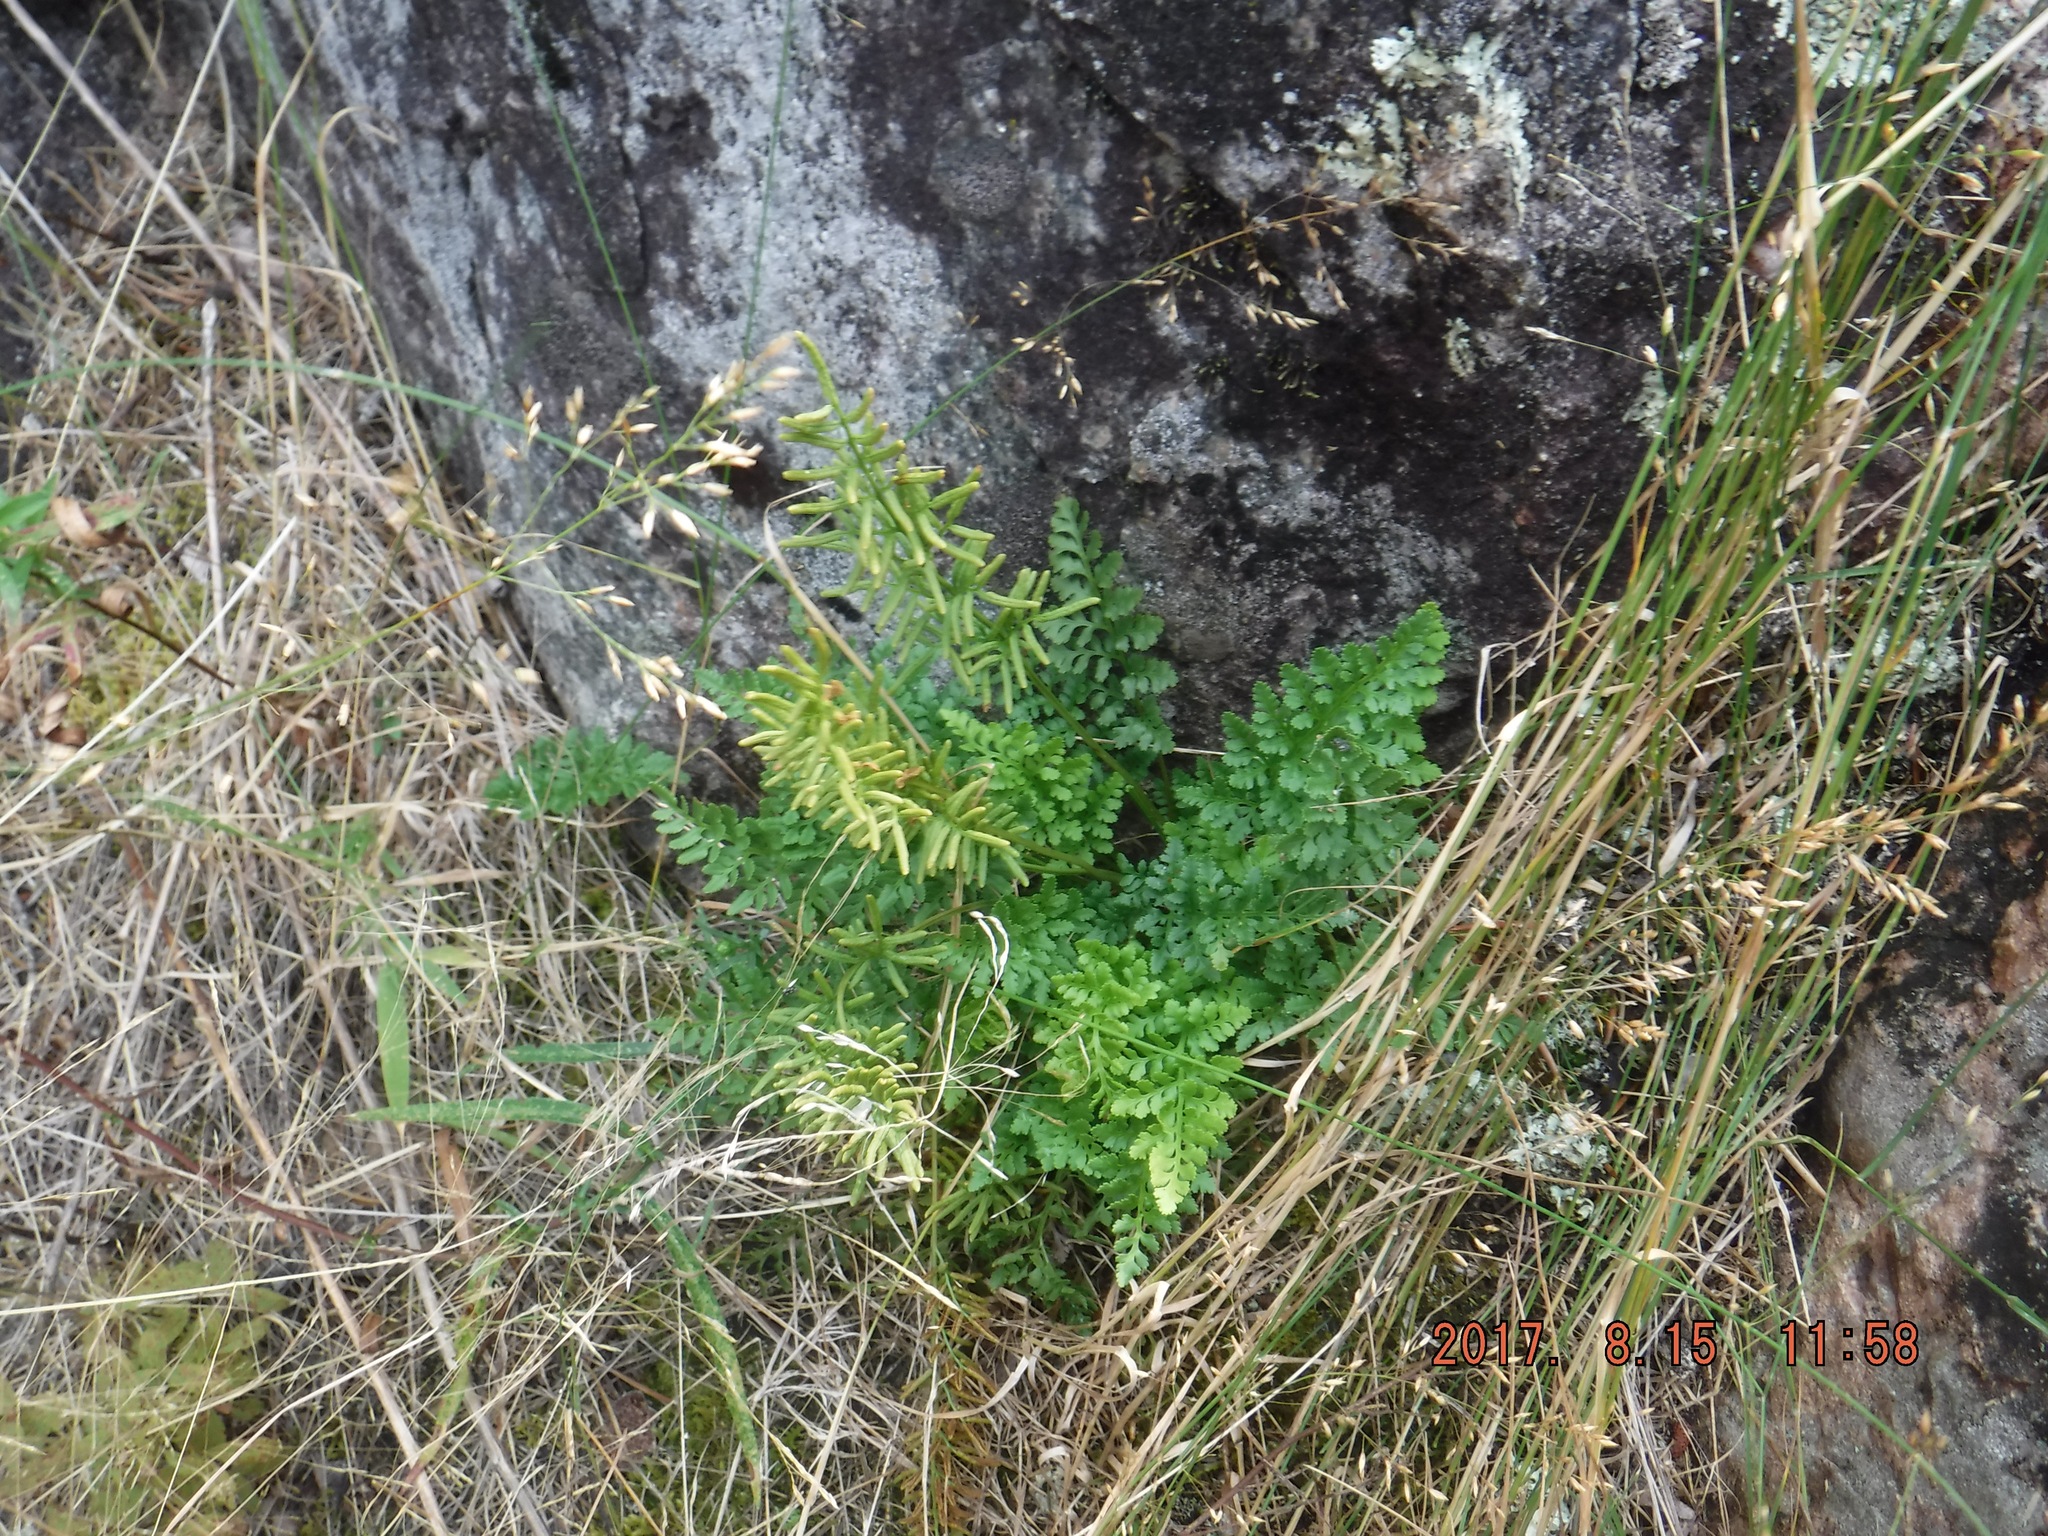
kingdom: Plantae
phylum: Tracheophyta
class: Polypodiopsida
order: Polypodiales
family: Pteridaceae
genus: Cryptogramma
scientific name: Cryptogramma acrostichoides
